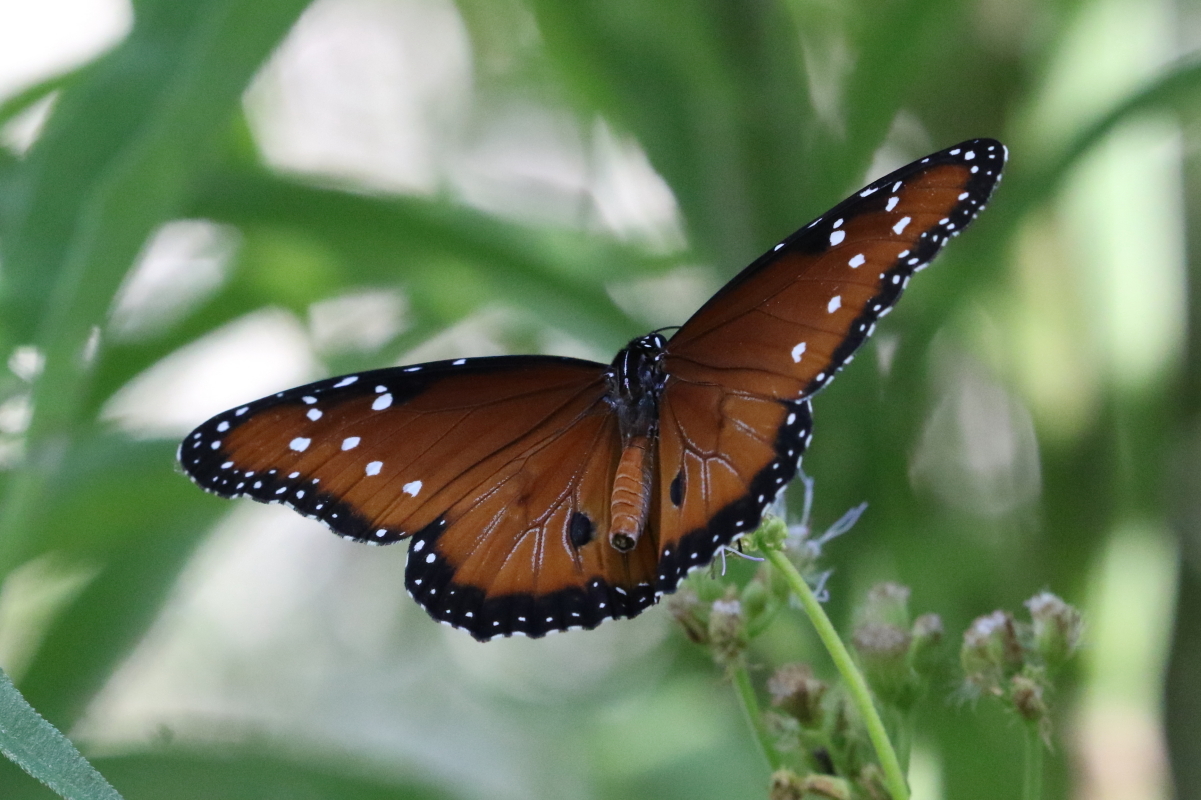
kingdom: Animalia
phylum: Arthropoda
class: Insecta
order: Lepidoptera
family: Nymphalidae
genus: Danaus
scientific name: Danaus gilippus
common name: Queen
